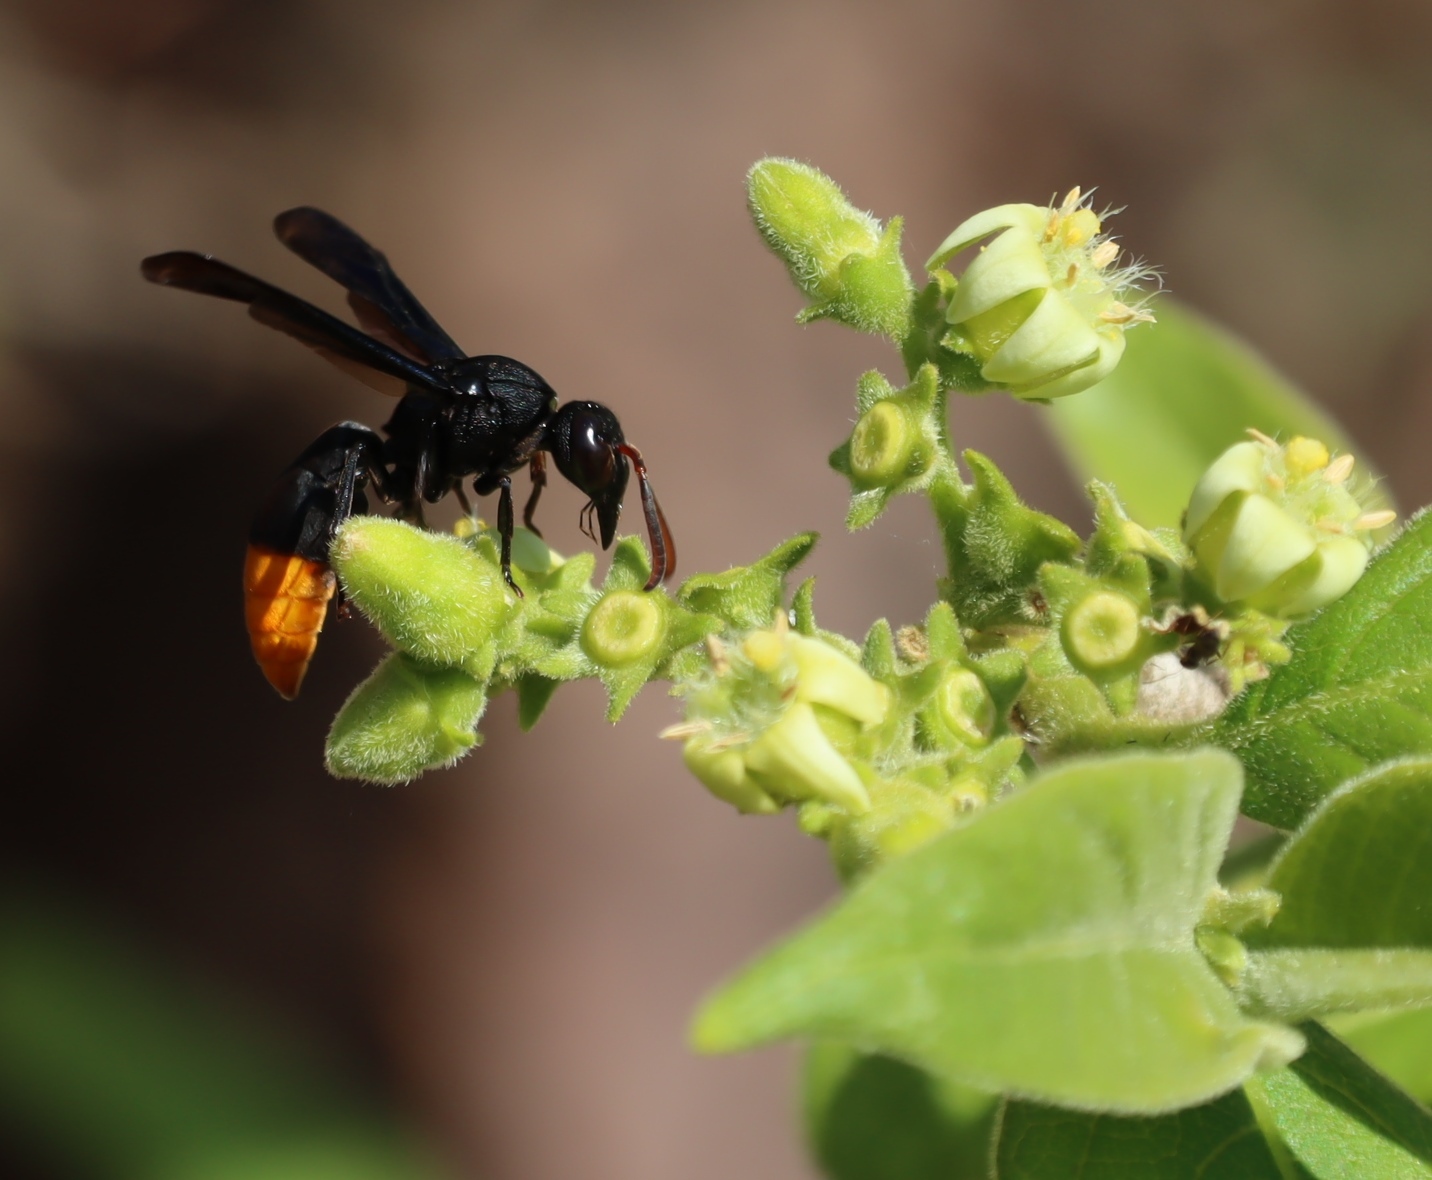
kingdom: Plantae
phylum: Tracheophyta
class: Magnoliopsida
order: Gentianales
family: Rubiaceae
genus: Vangueria
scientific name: Vangueria infausta
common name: Medlar
